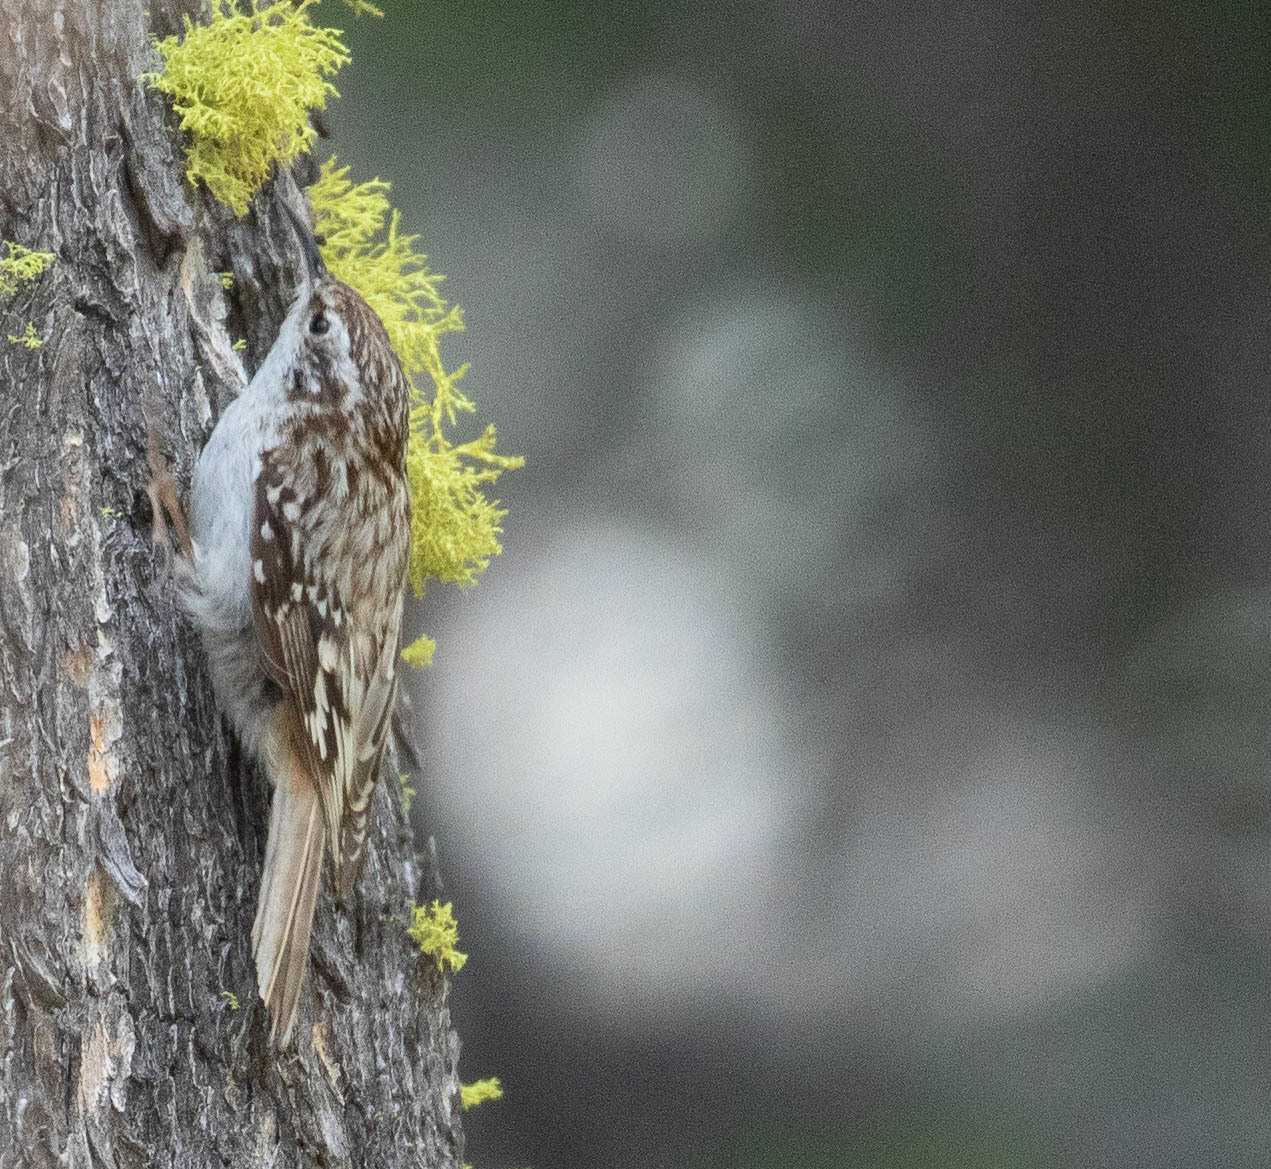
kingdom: Animalia
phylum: Chordata
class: Aves
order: Passeriformes
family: Certhiidae
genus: Certhia
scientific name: Certhia americana
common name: Brown creeper
